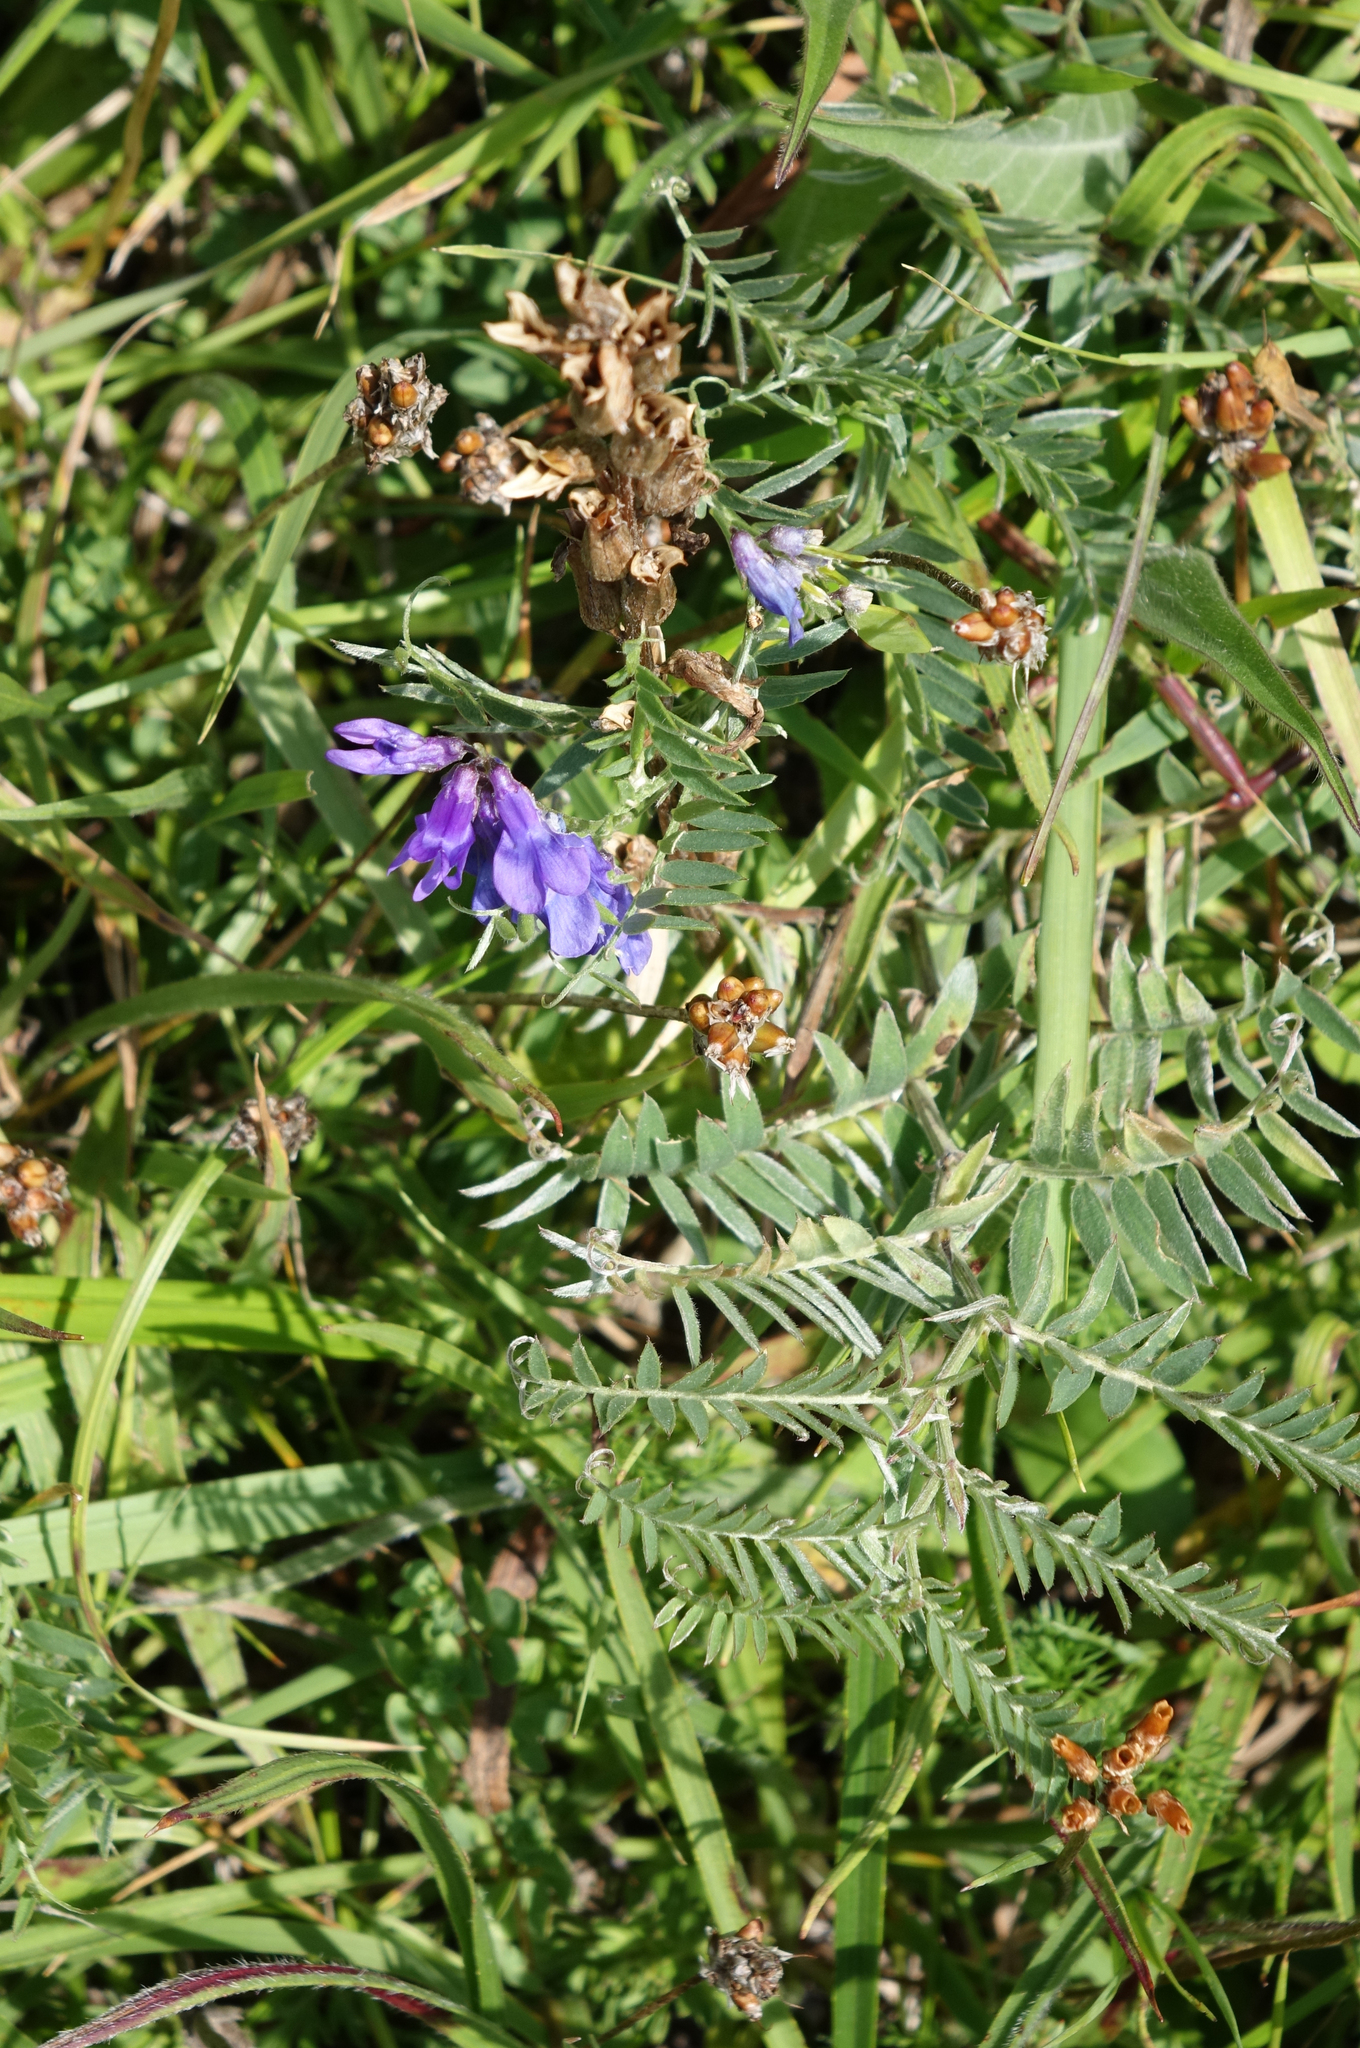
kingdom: Plantae
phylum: Tracheophyta
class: Magnoliopsida
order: Fabales
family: Fabaceae
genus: Vicia
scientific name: Vicia cracca
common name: Bird vetch
